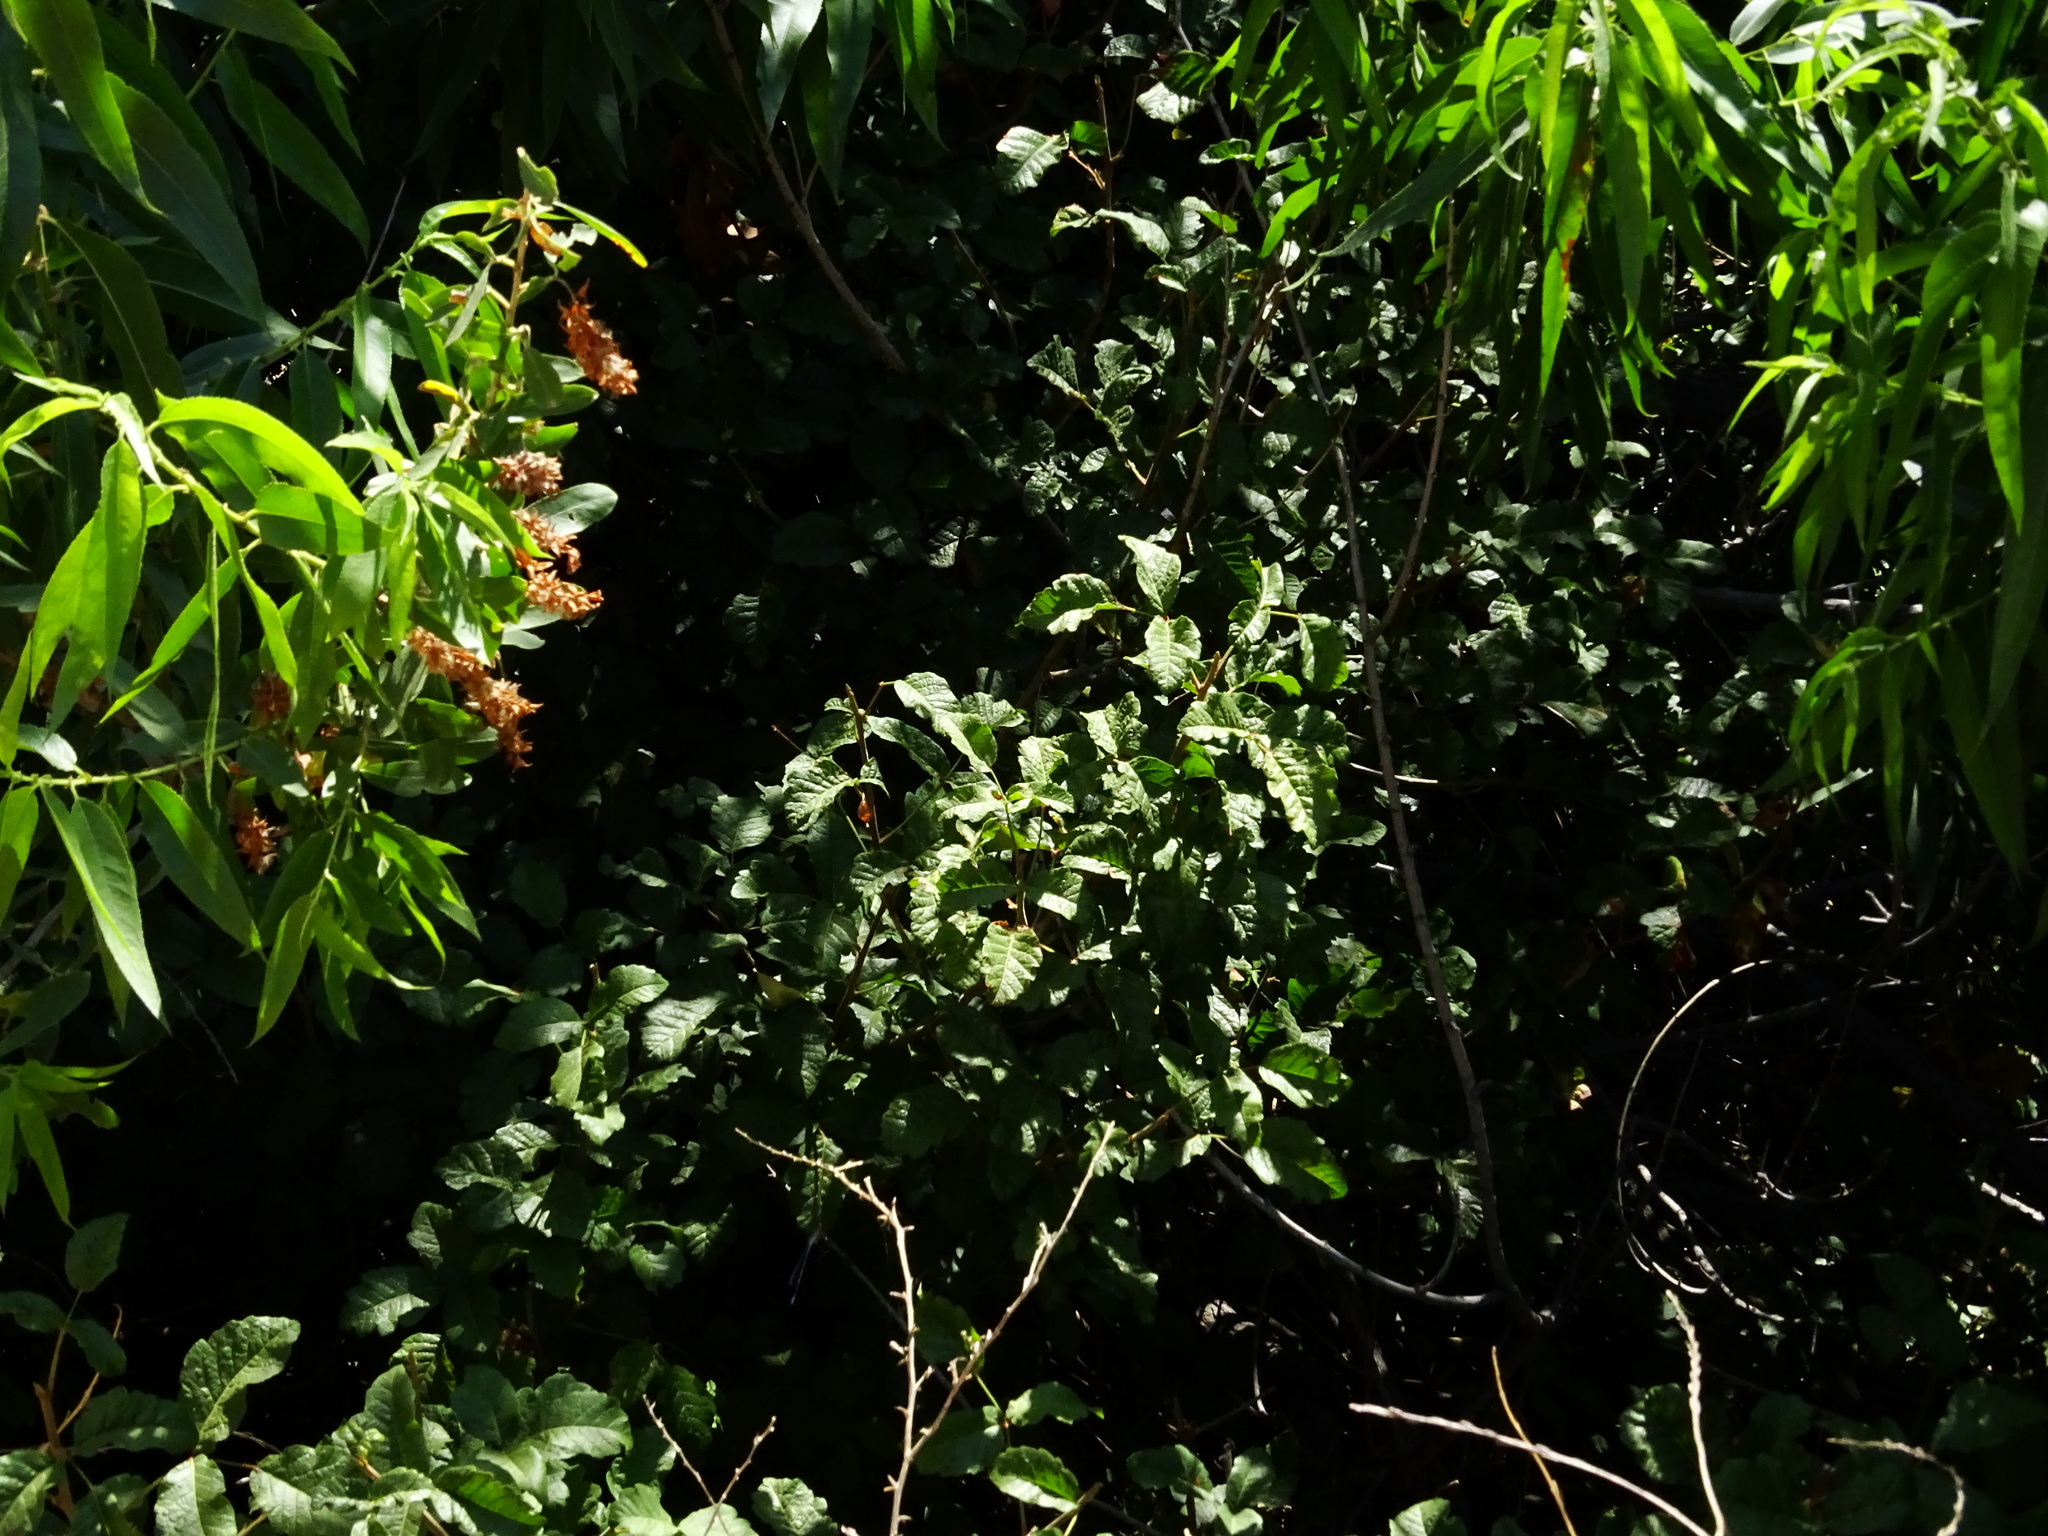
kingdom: Plantae
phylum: Tracheophyta
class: Magnoliopsida
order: Sapindales
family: Anacardiaceae
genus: Toxicodendron
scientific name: Toxicodendron diversilobum
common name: Pacific poison-oak
